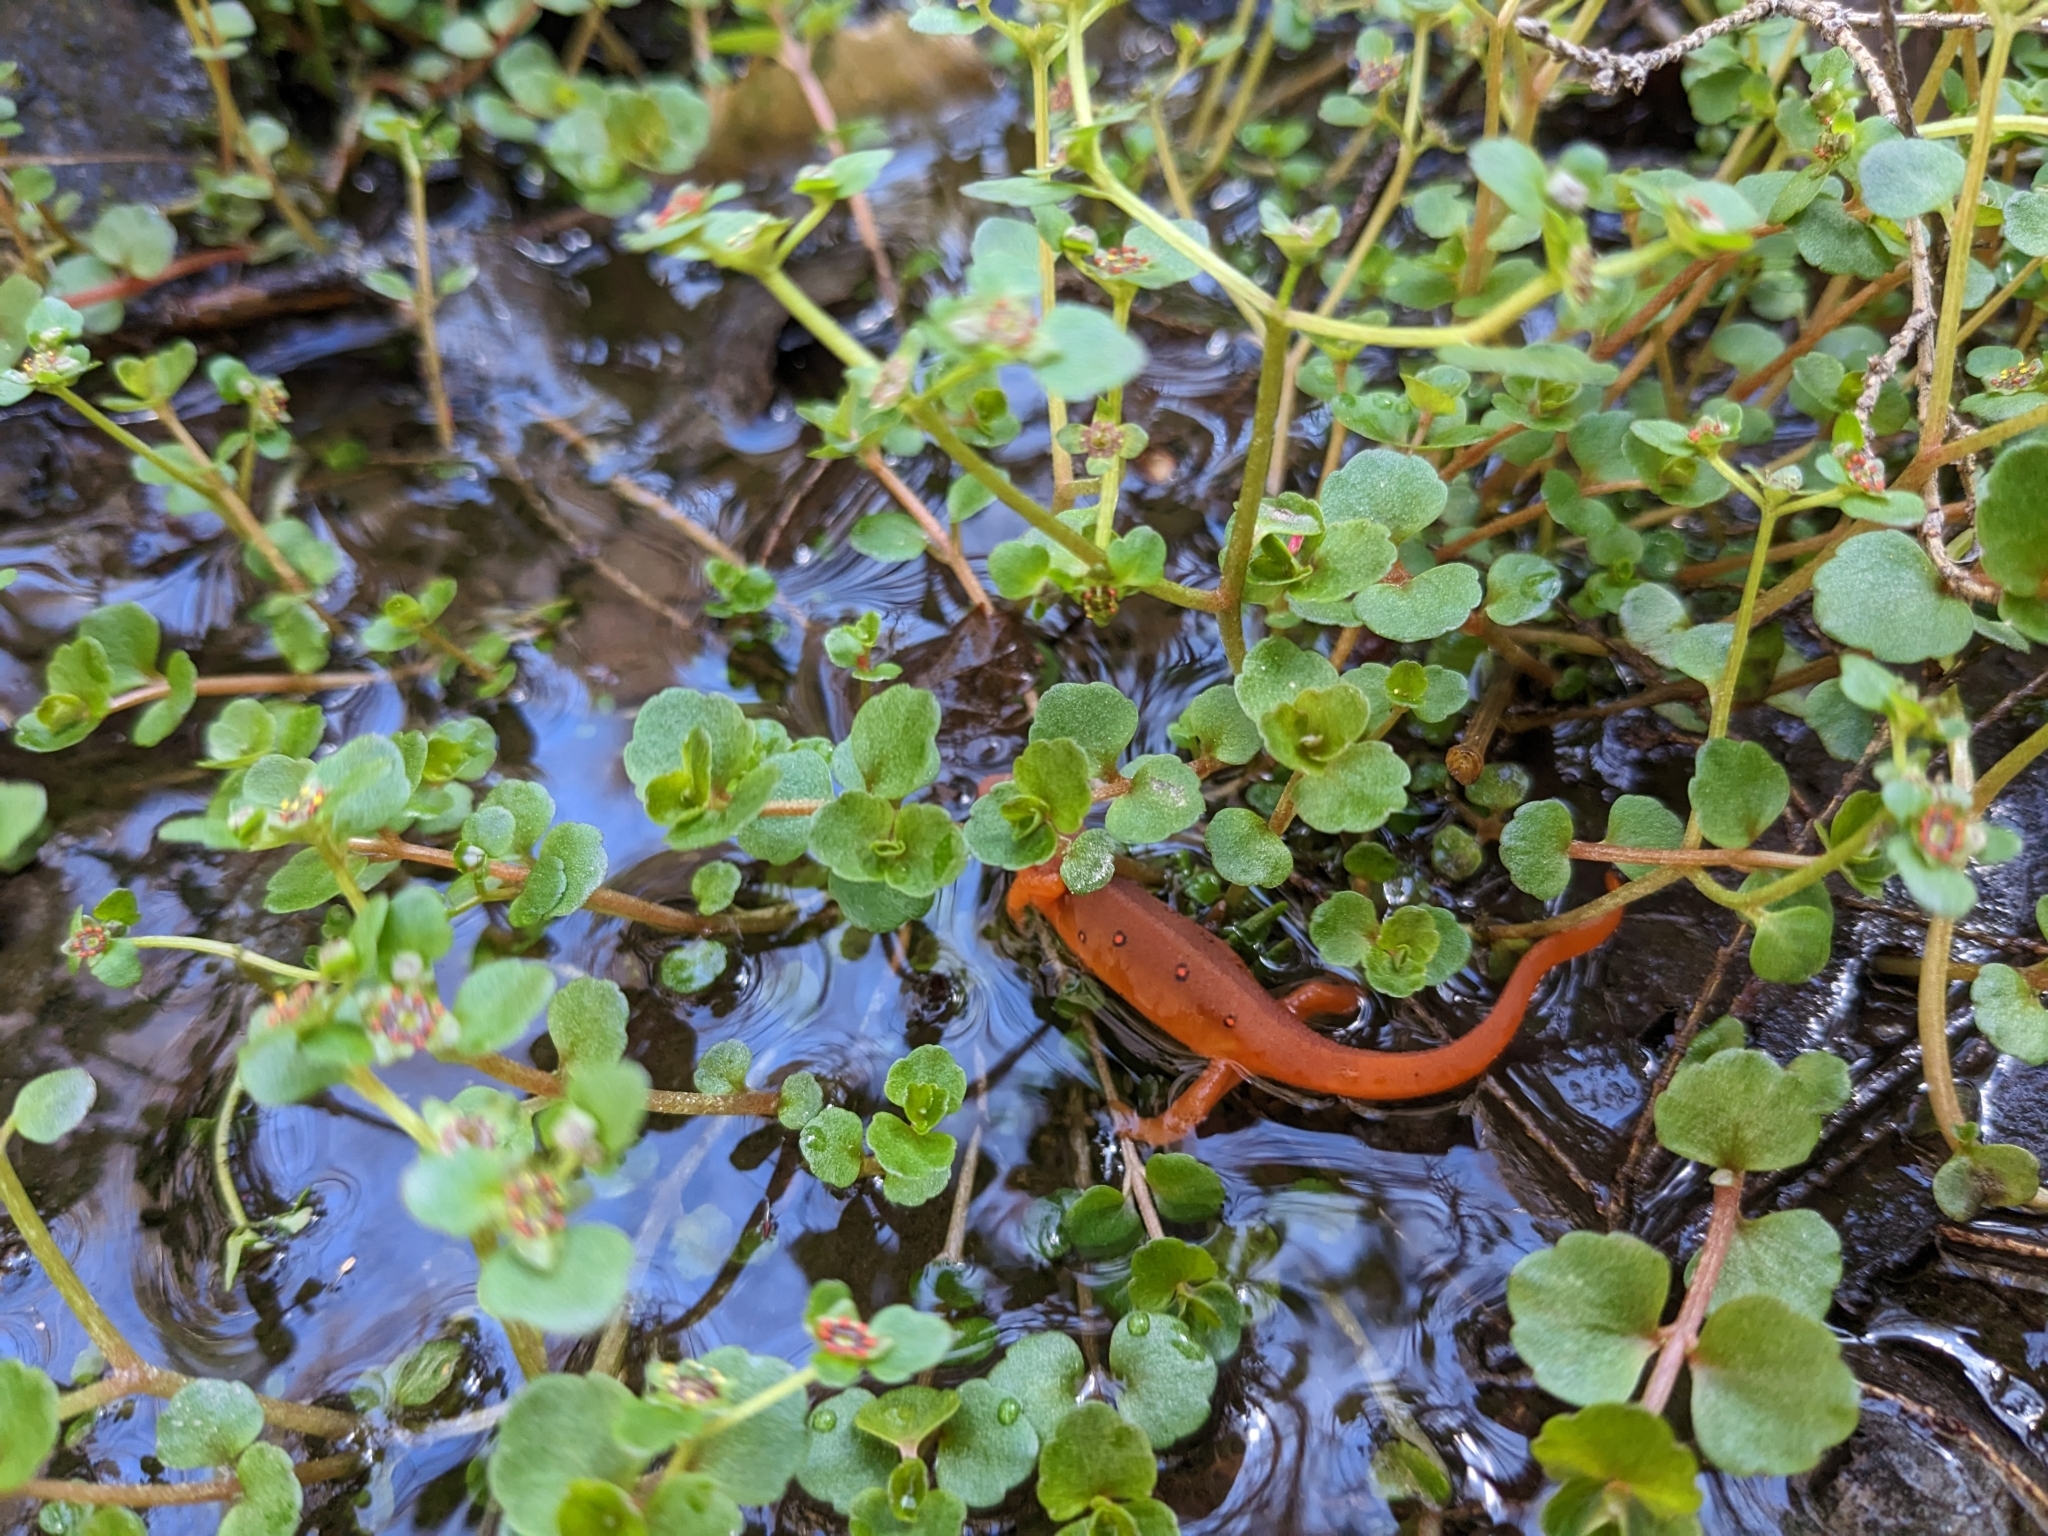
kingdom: Animalia
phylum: Chordata
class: Amphibia
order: Caudata
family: Salamandridae
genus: Notophthalmus
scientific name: Notophthalmus viridescens
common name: Eastern newt
